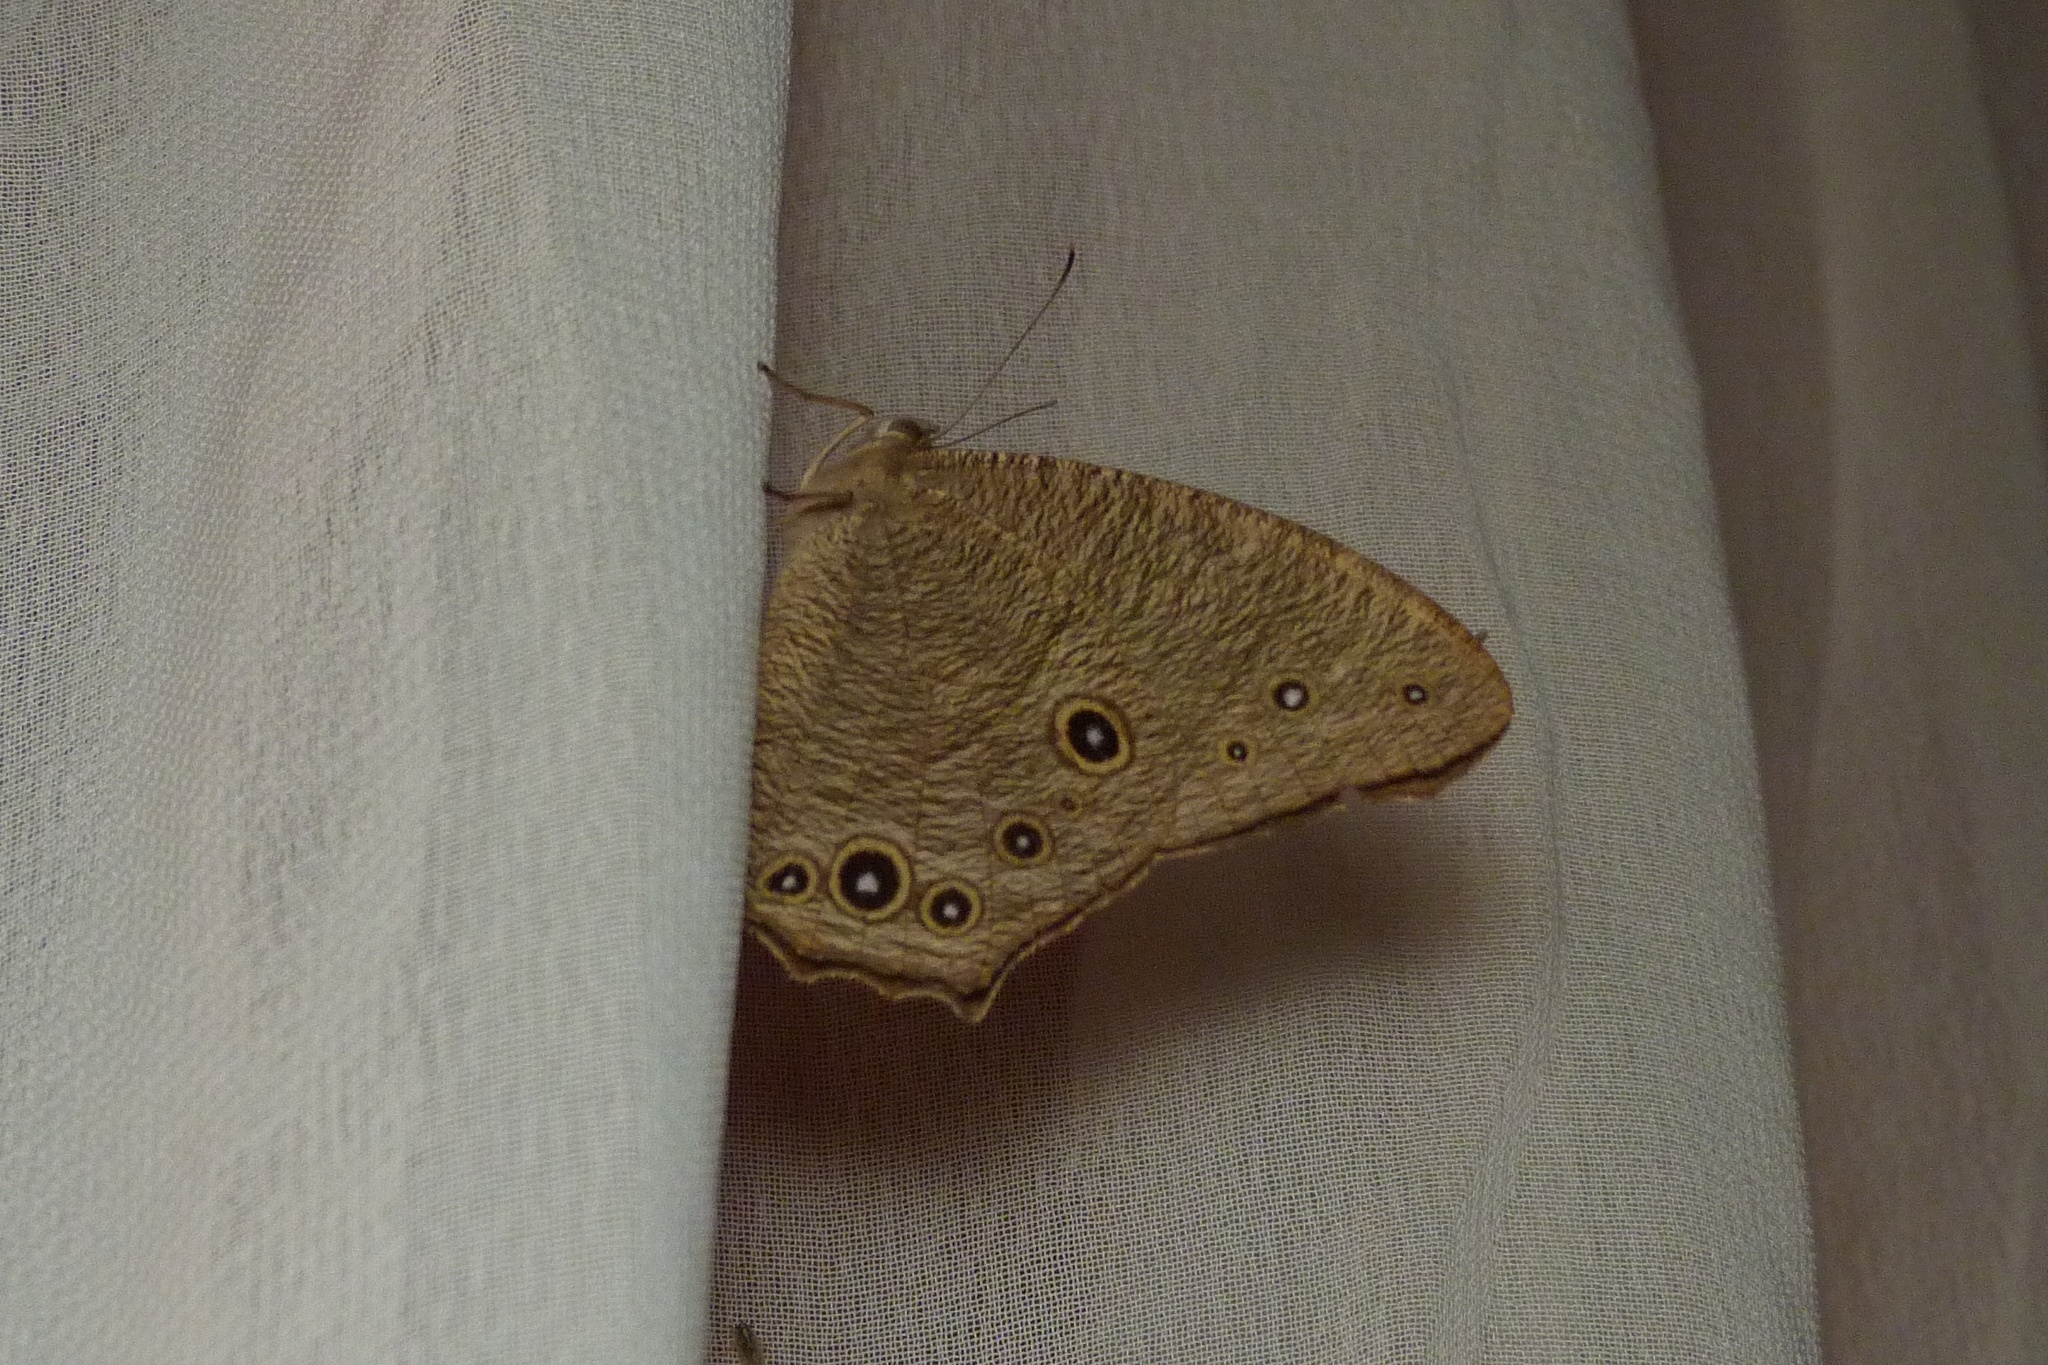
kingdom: Animalia
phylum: Arthropoda
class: Insecta
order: Lepidoptera
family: Nymphalidae
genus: Melanitis
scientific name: Melanitis leda
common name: Twilight brown
